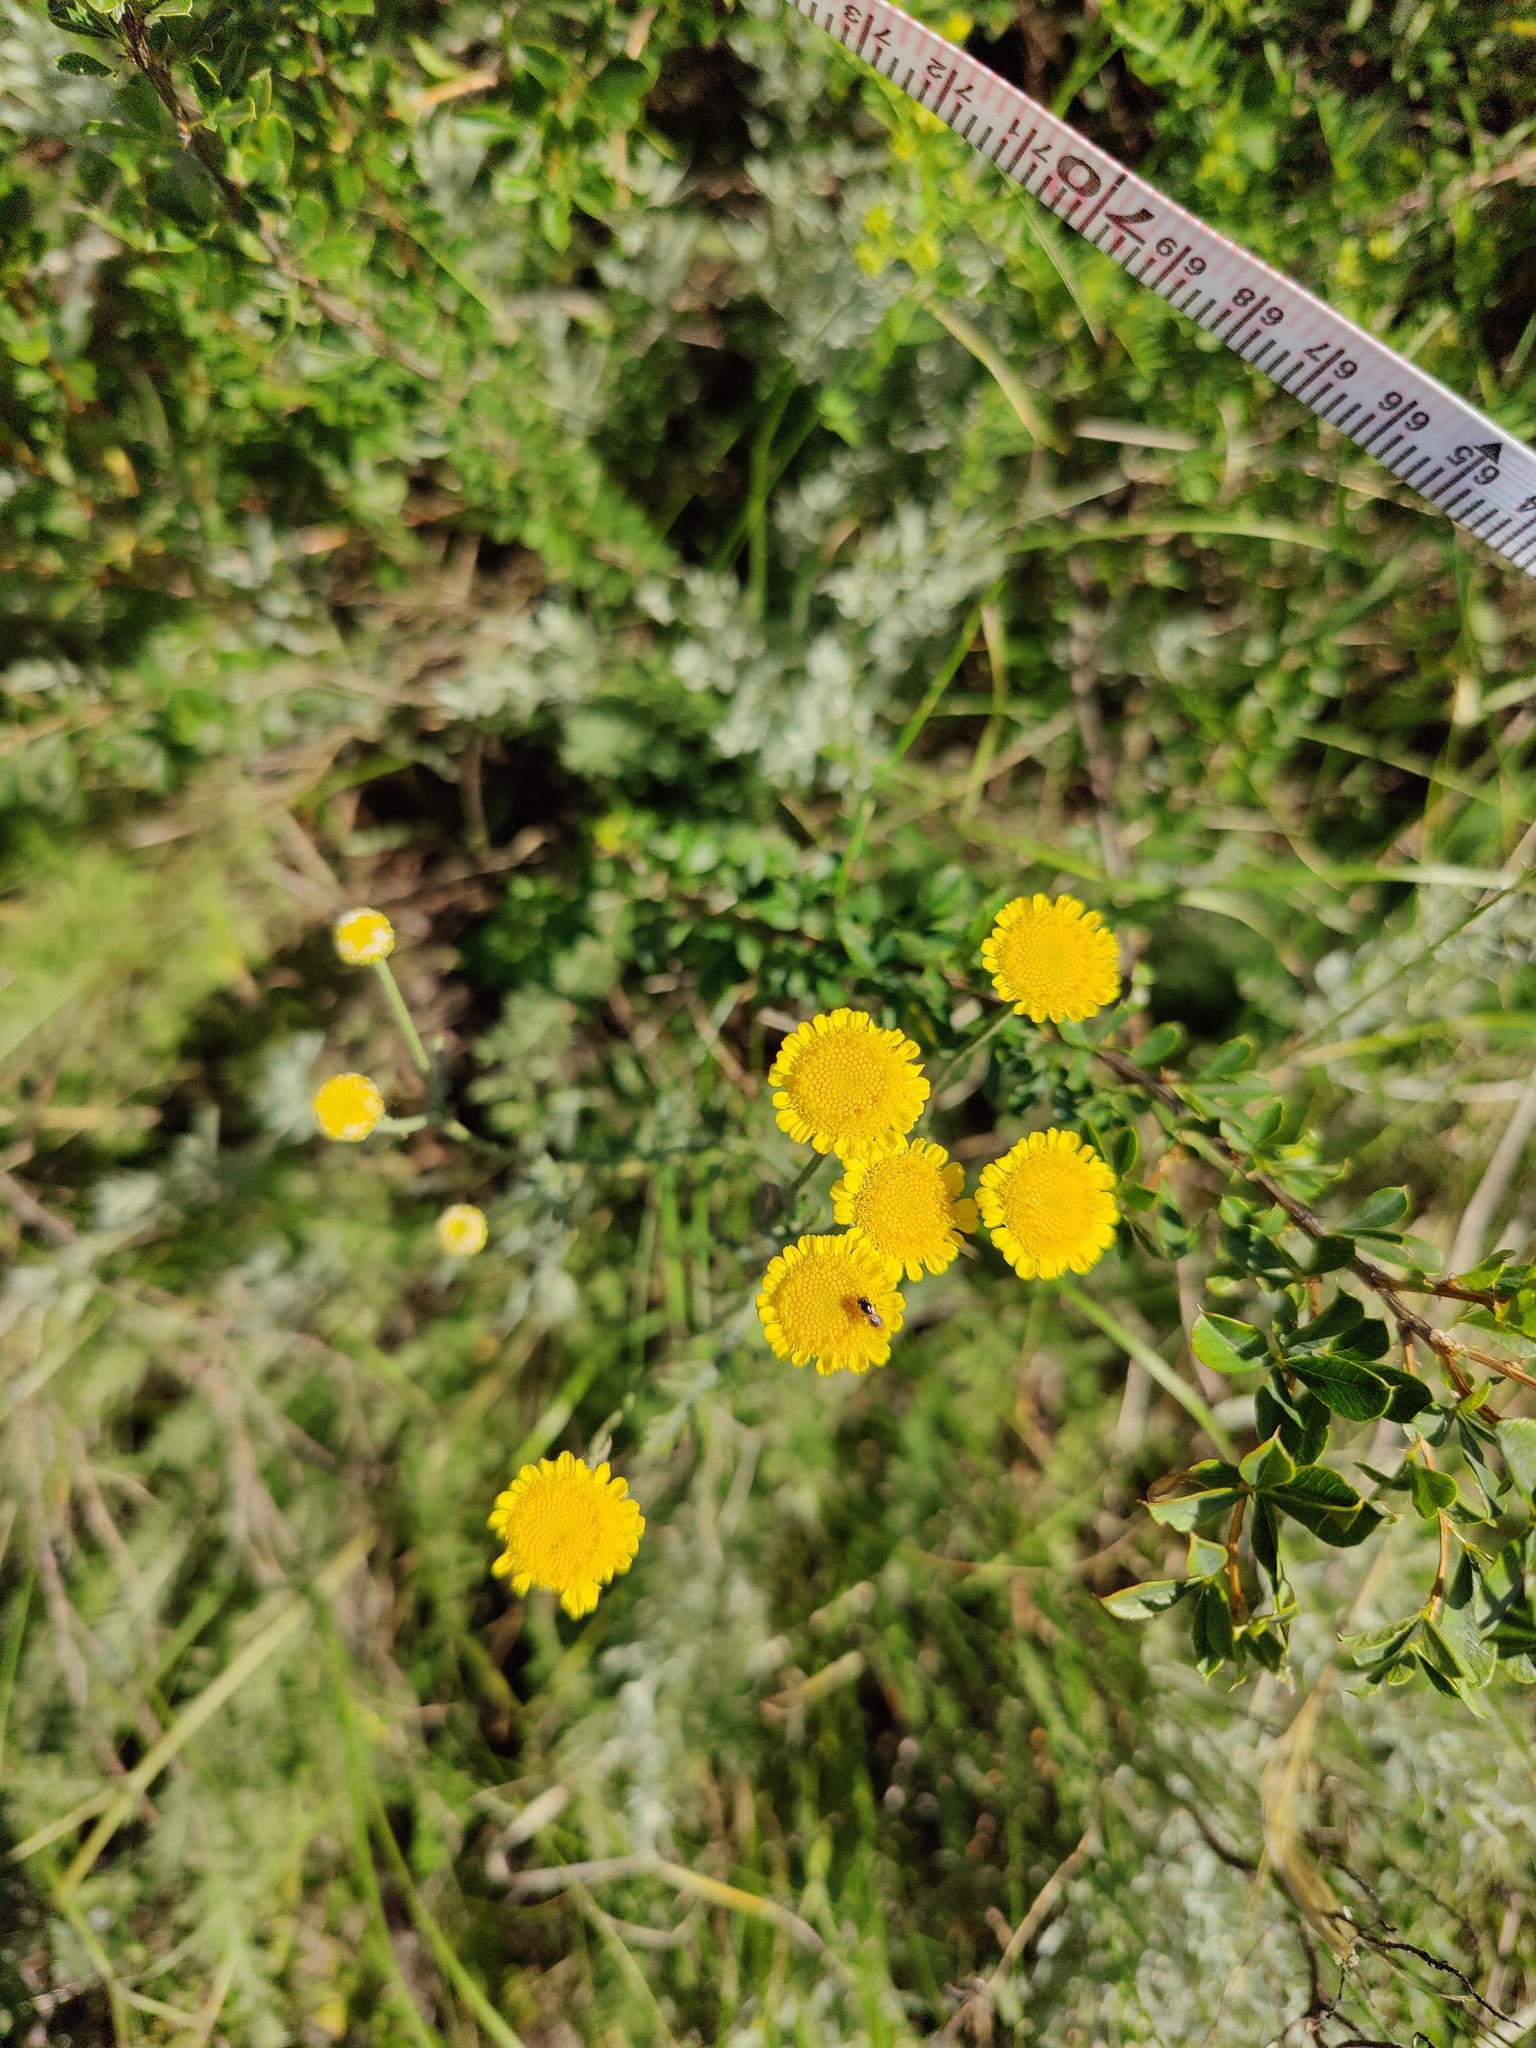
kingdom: Plantae
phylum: Tracheophyta
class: Magnoliopsida
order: Asterales
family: Asteraceae
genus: Tanacetum
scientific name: Tanacetum achilleifolium
